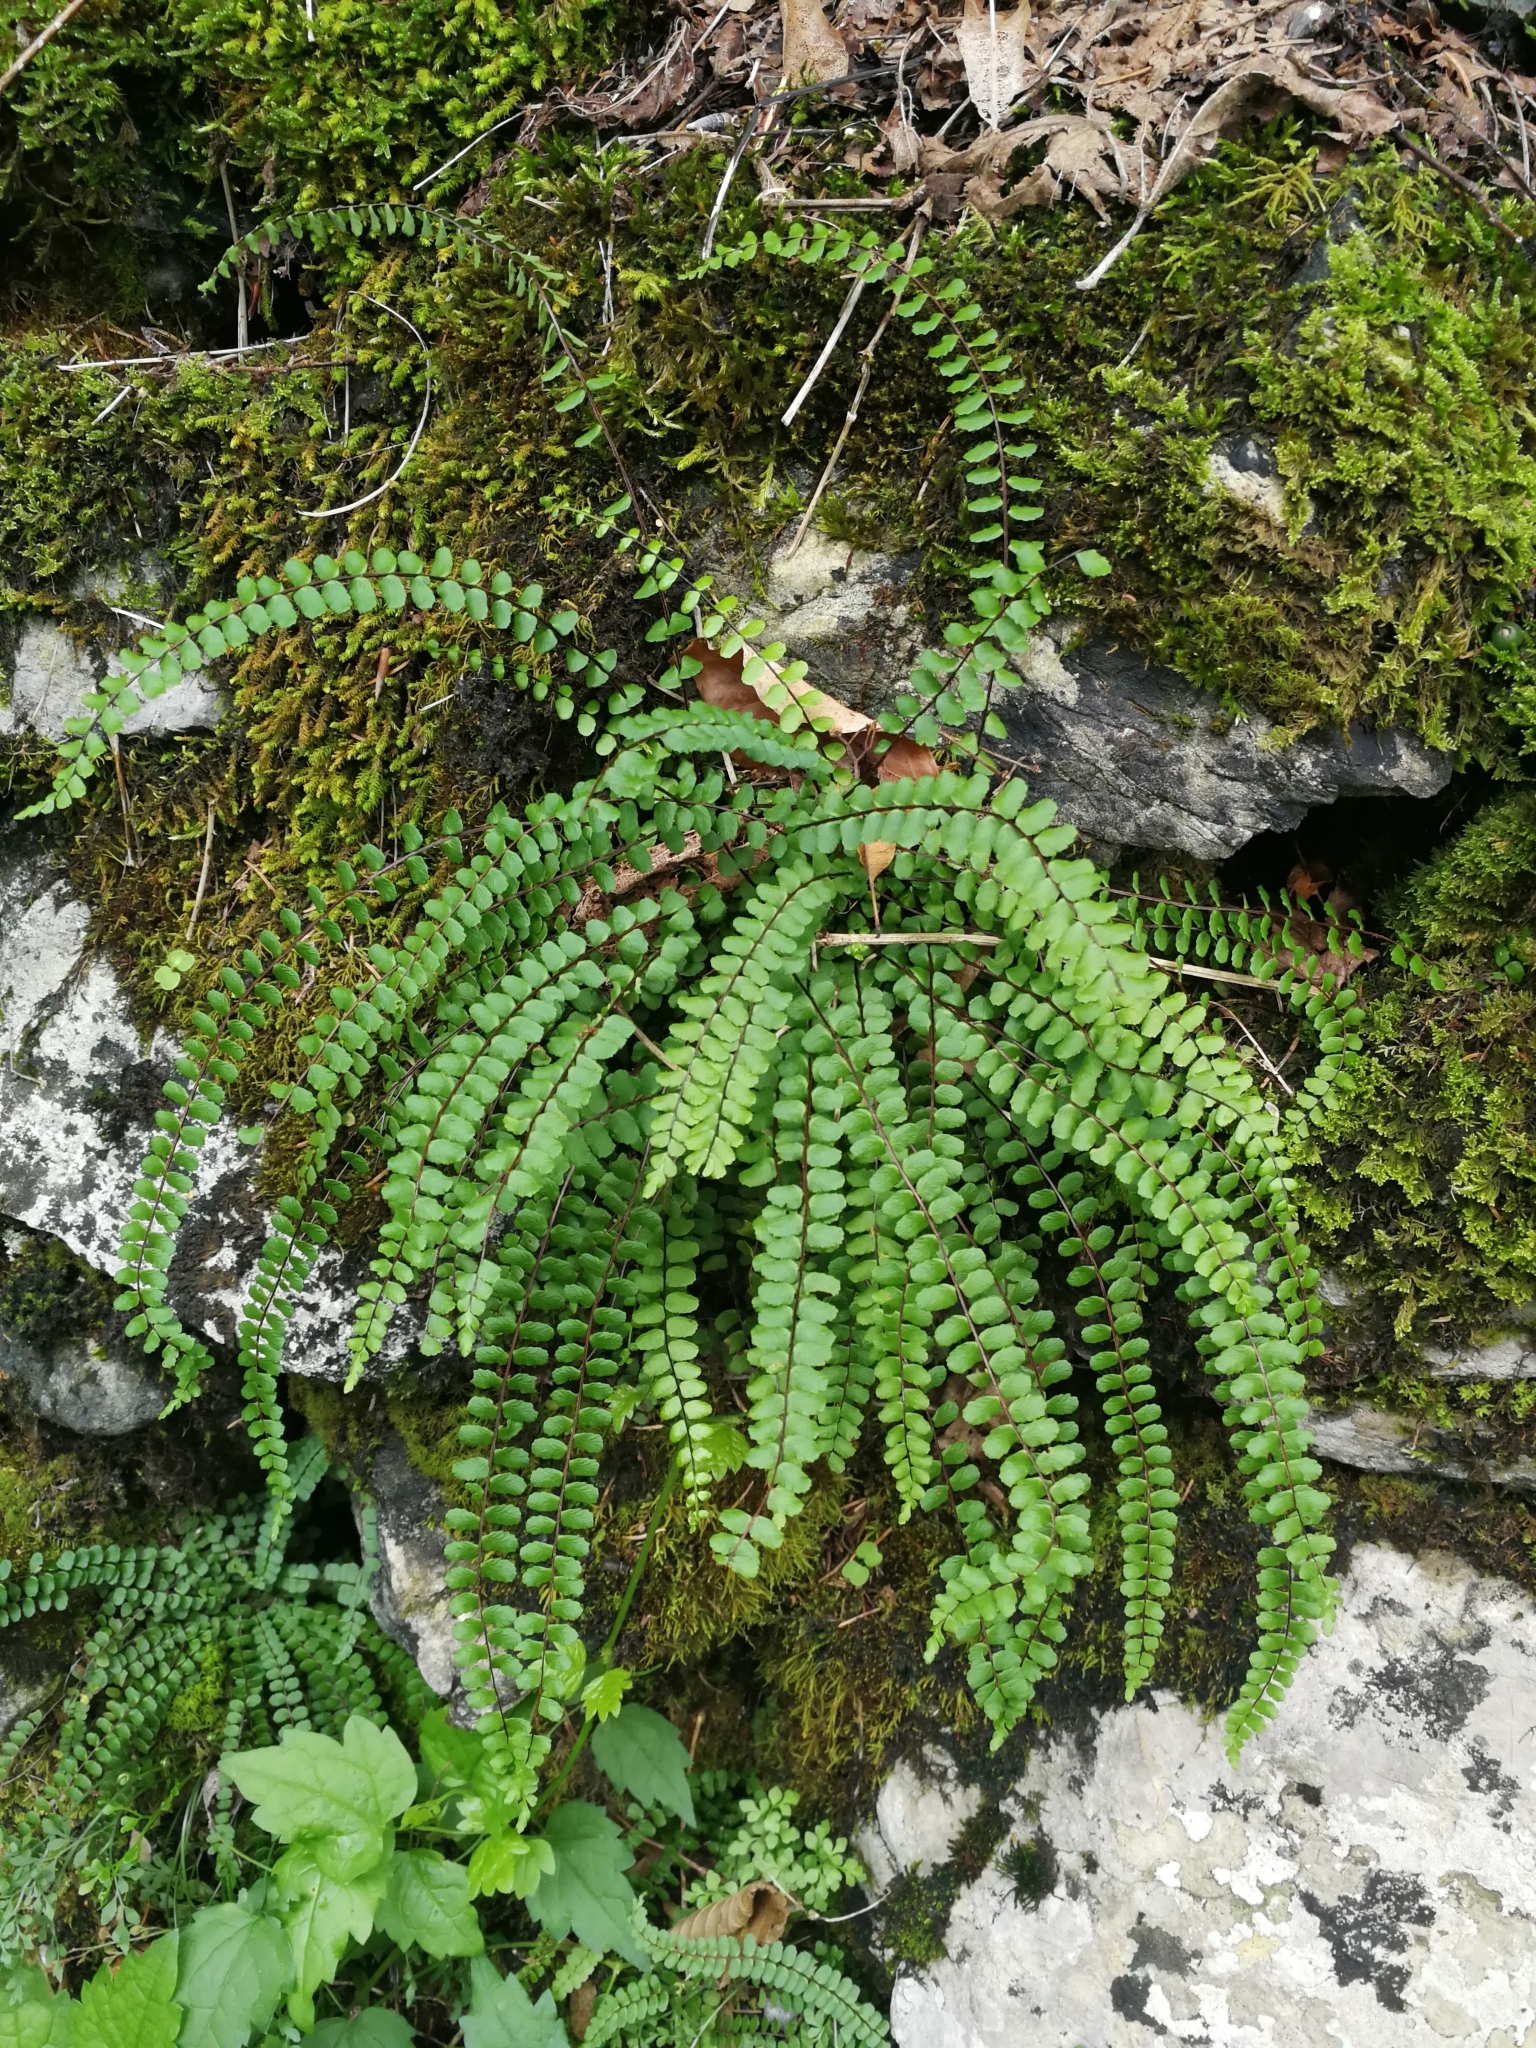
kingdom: Plantae
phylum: Tracheophyta
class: Polypodiopsida
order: Polypodiales
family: Aspleniaceae
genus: Asplenium
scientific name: Asplenium trichomanes
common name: Maidenhair spleenwort
